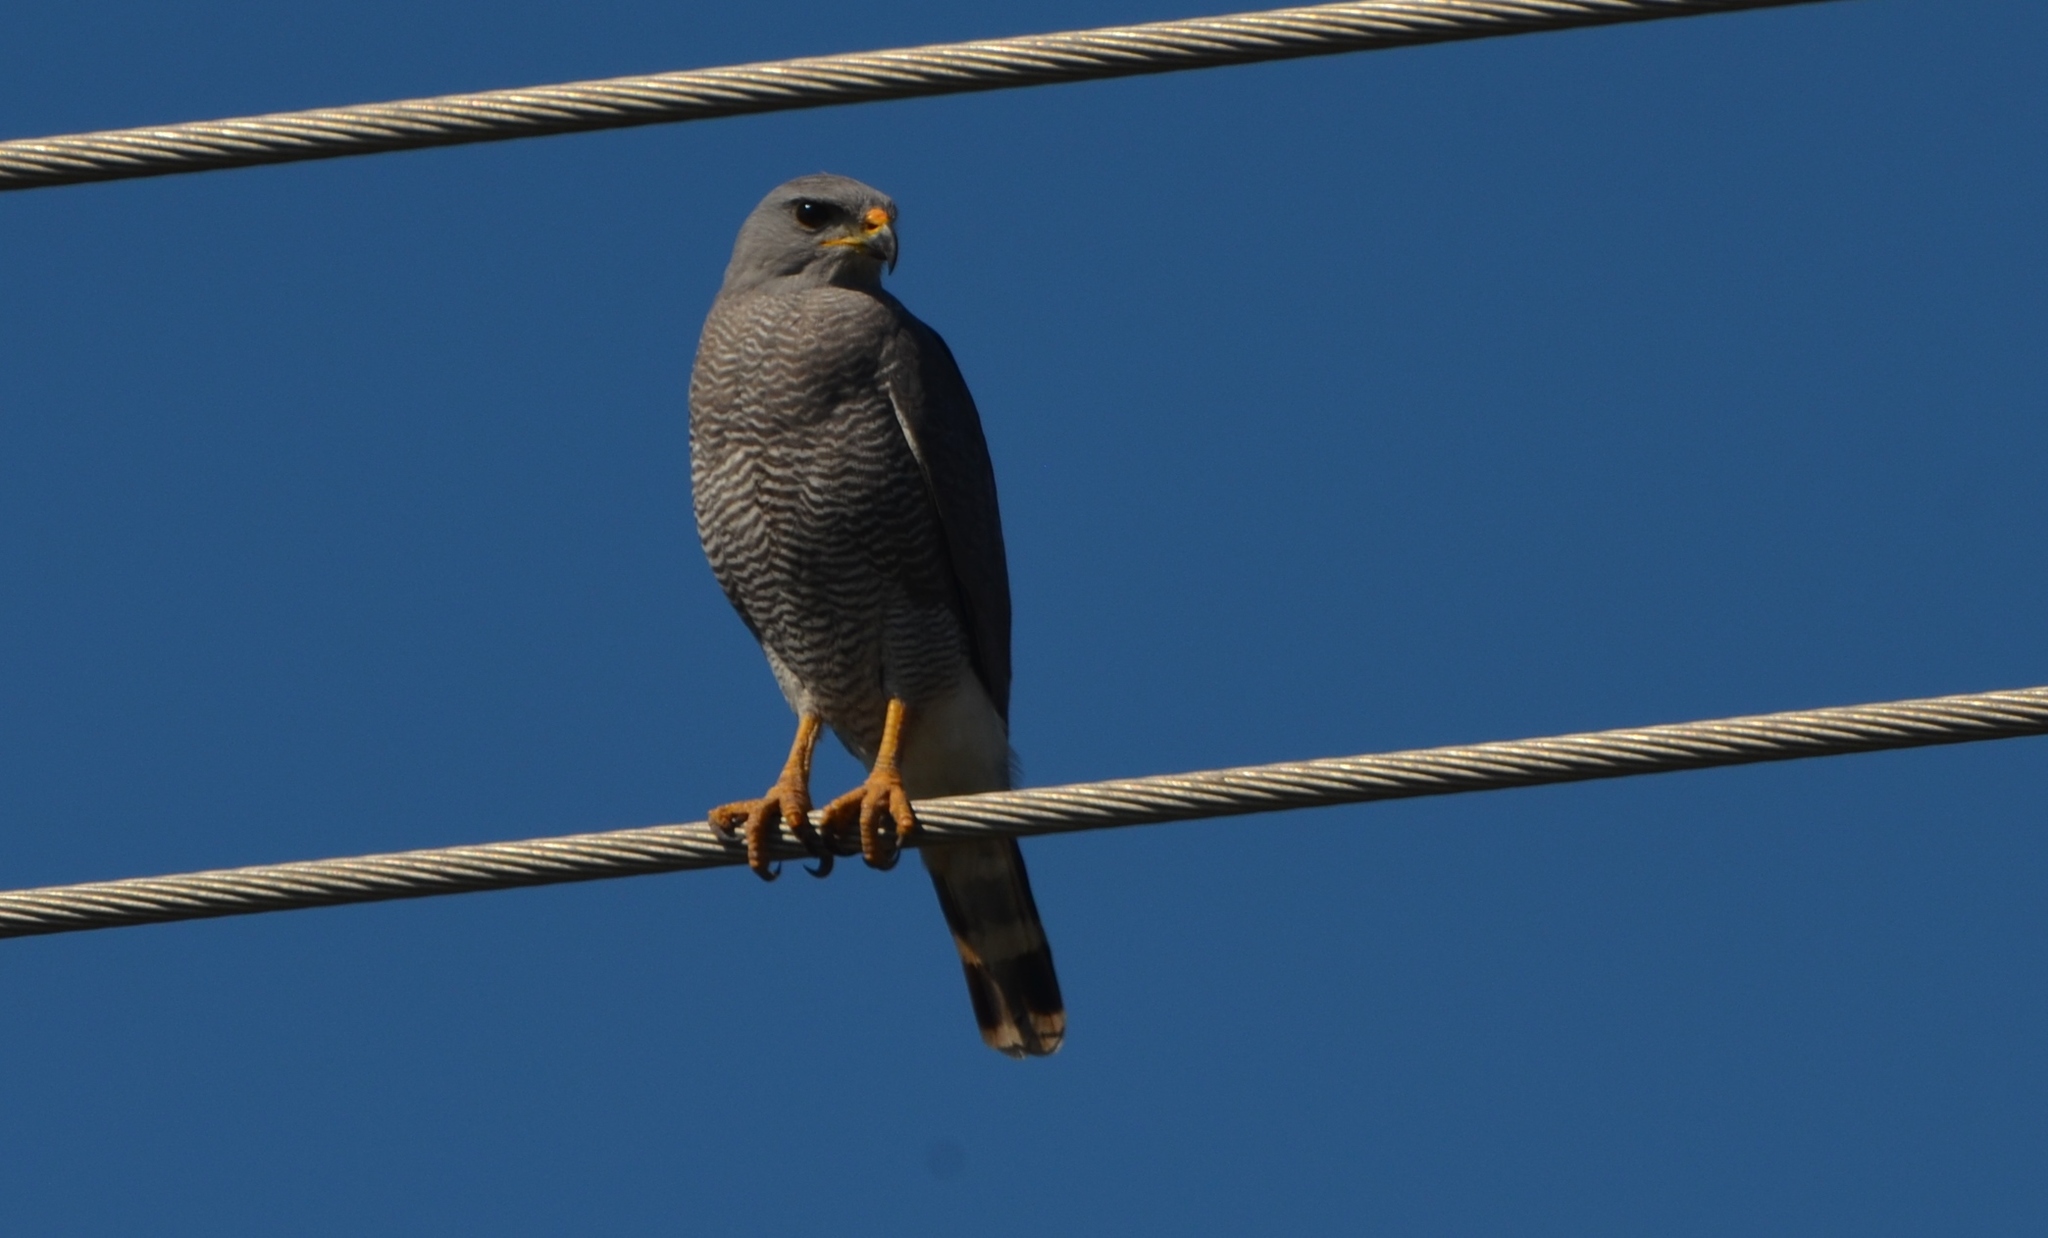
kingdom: Animalia
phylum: Chordata
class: Aves
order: Accipitriformes
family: Accipitridae
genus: Buteo
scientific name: Buteo nitidus
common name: Grey-lined hawk
